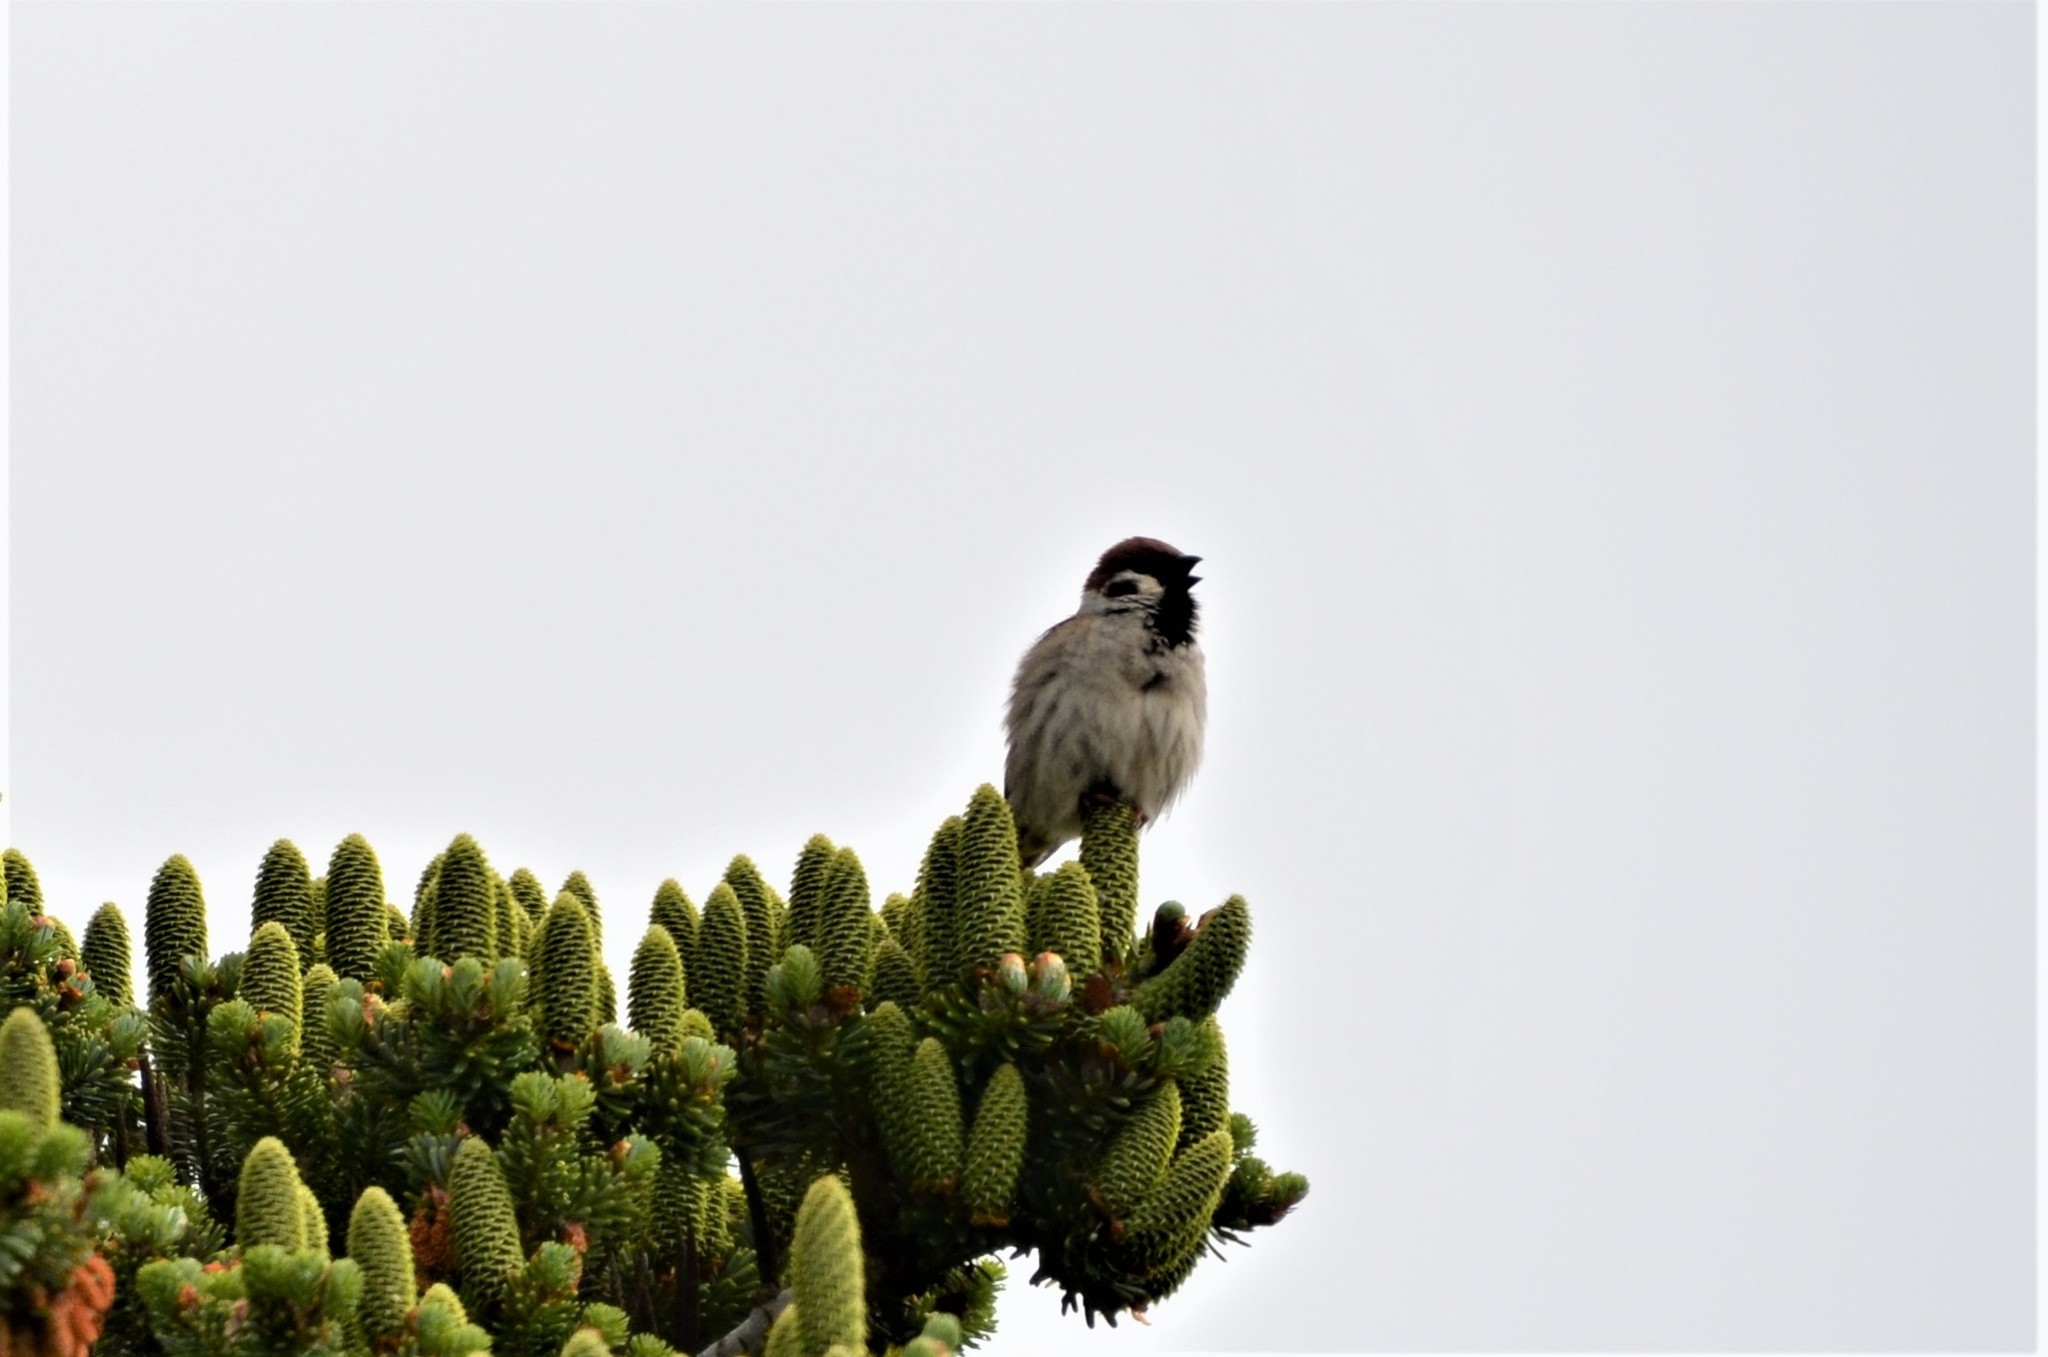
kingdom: Animalia
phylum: Chordata
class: Aves
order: Passeriformes
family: Passeridae
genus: Passer
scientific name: Passer montanus
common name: Eurasian tree sparrow
